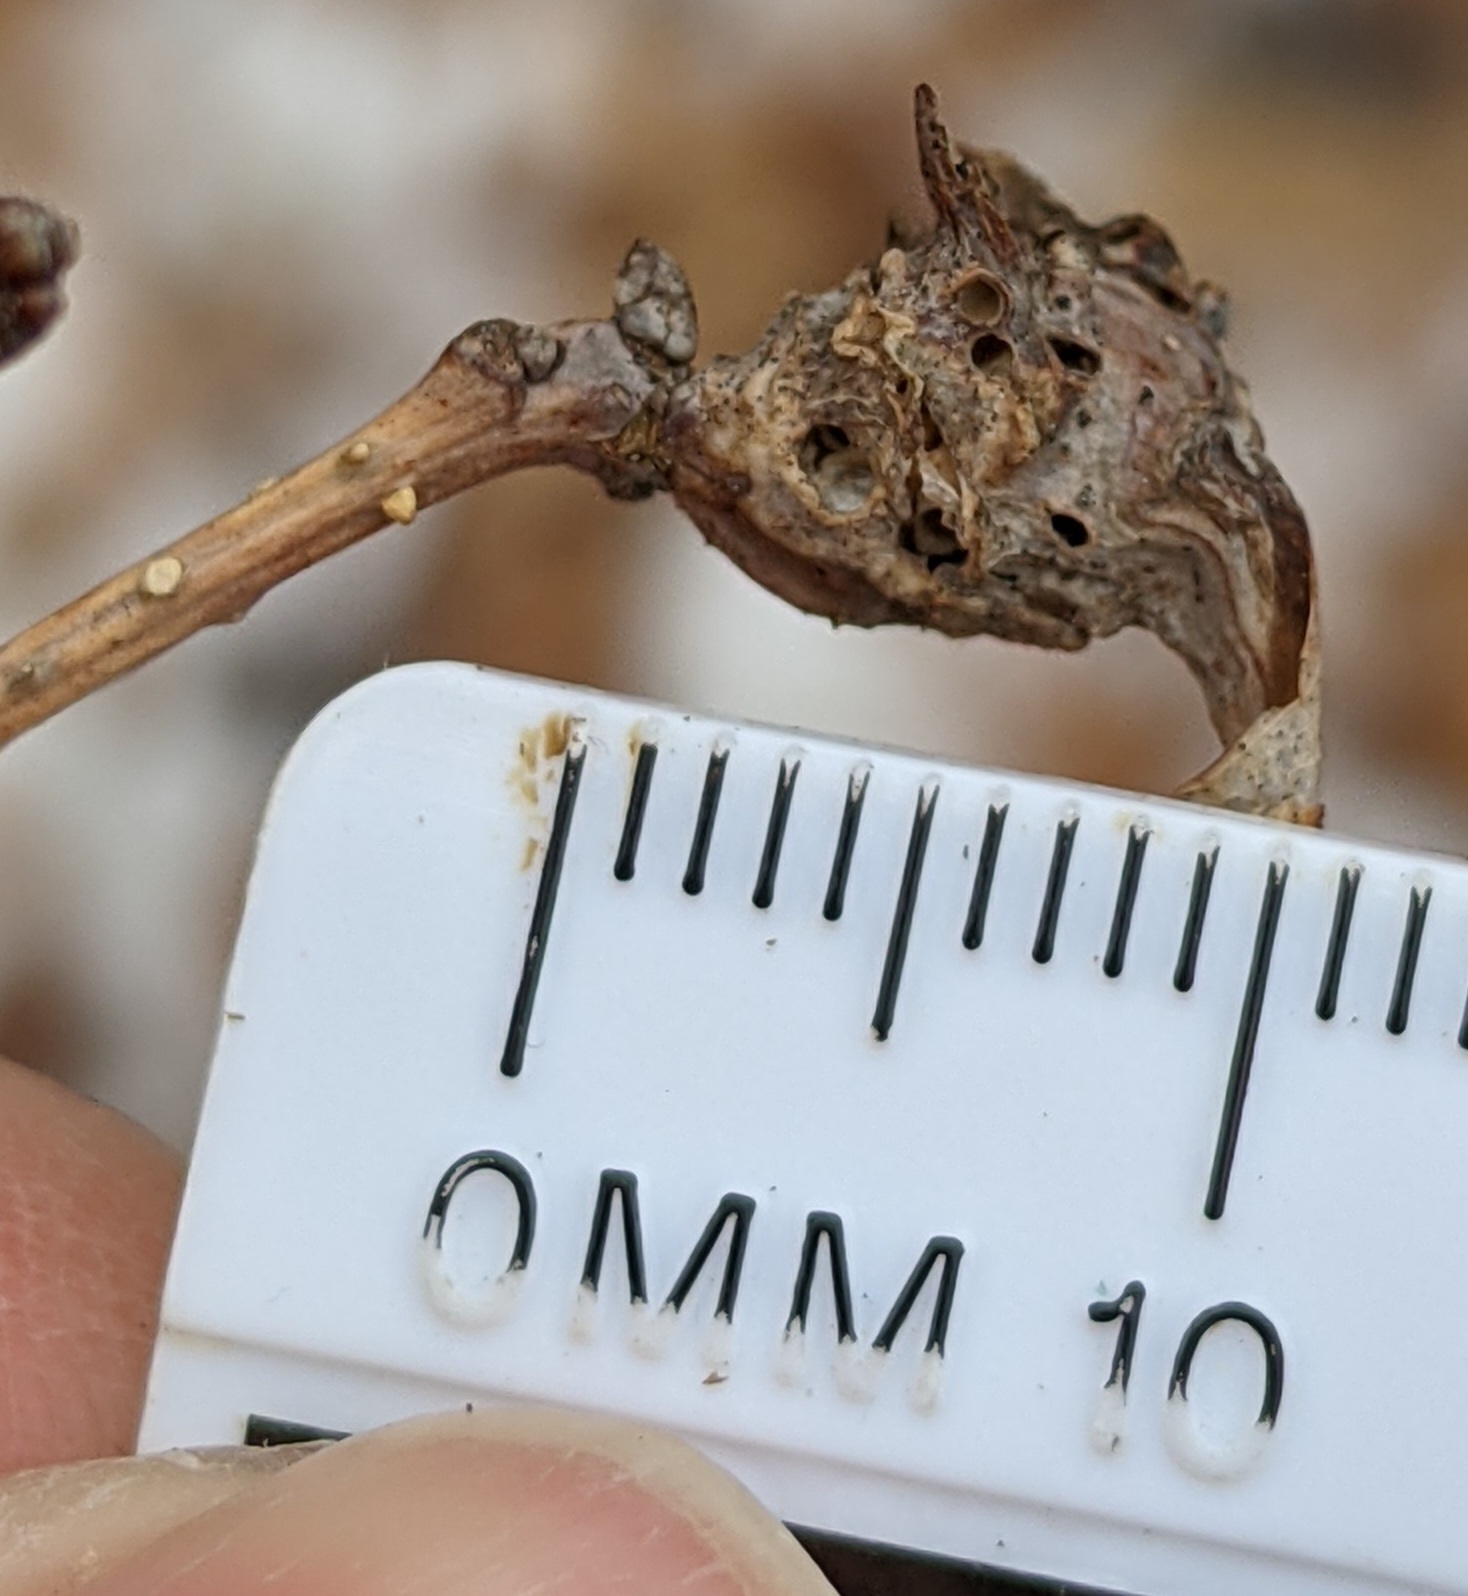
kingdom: Animalia
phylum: Arthropoda
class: Insecta
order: Hymenoptera
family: Cynipidae
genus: Neuroterus
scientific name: Neuroterus quercusbaccarum
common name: Common spangle gall
